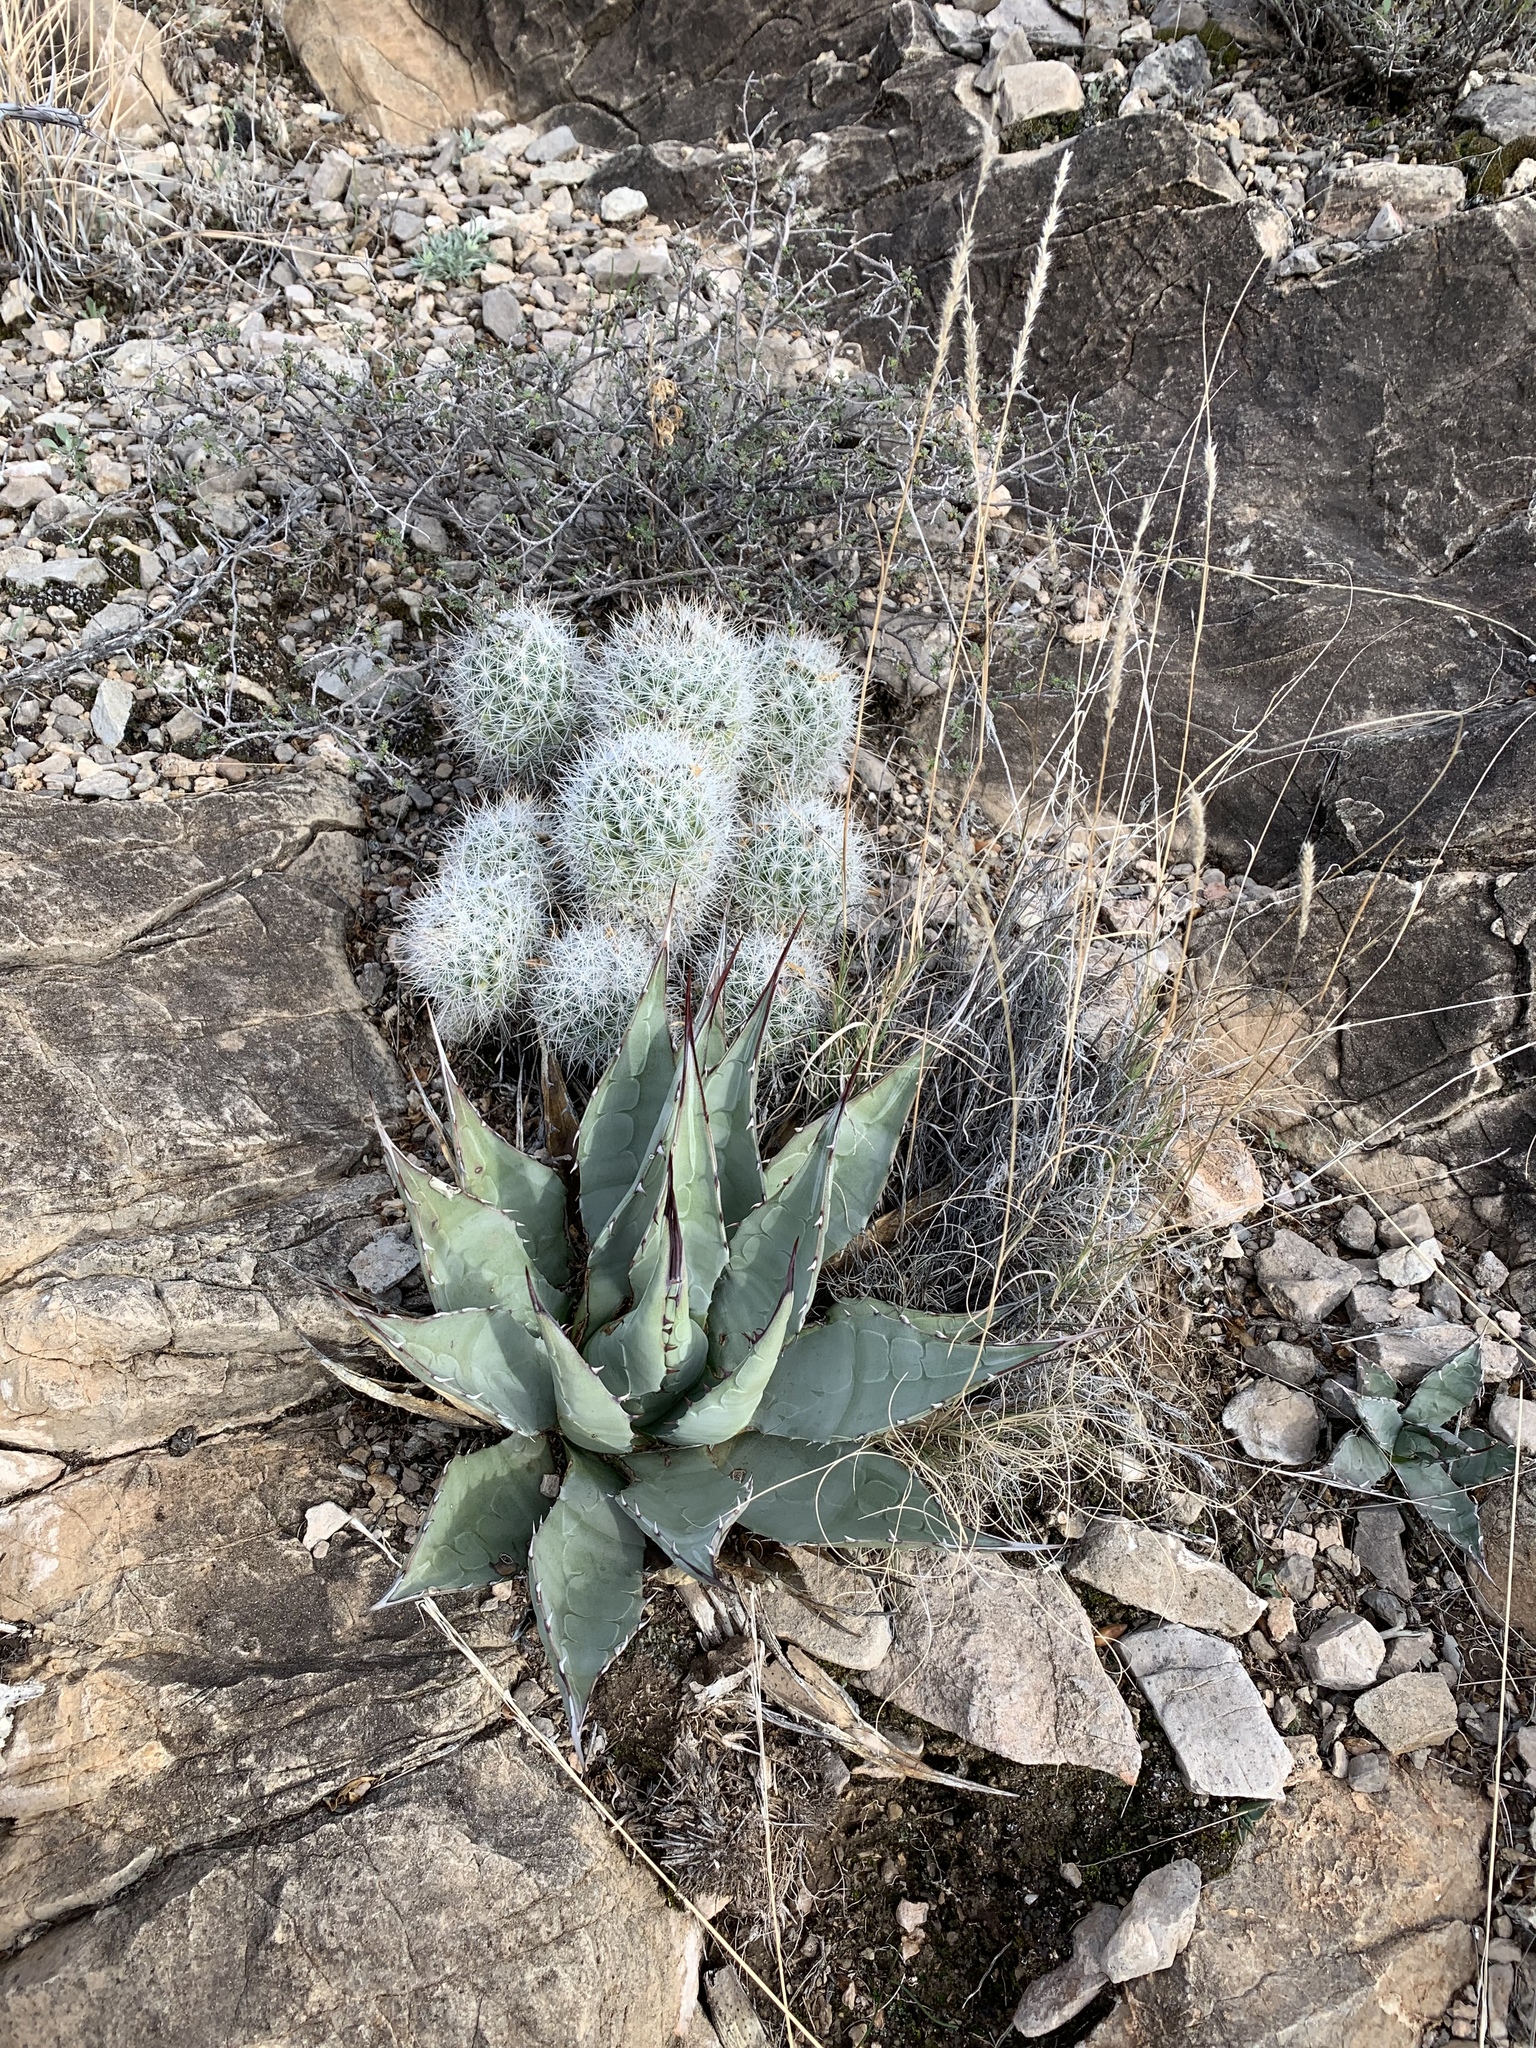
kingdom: Plantae
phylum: Tracheophyta
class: Liliopsida
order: Asparagales
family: Asparagaceae
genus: Agave
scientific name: Agave parryi
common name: Parry's agave
